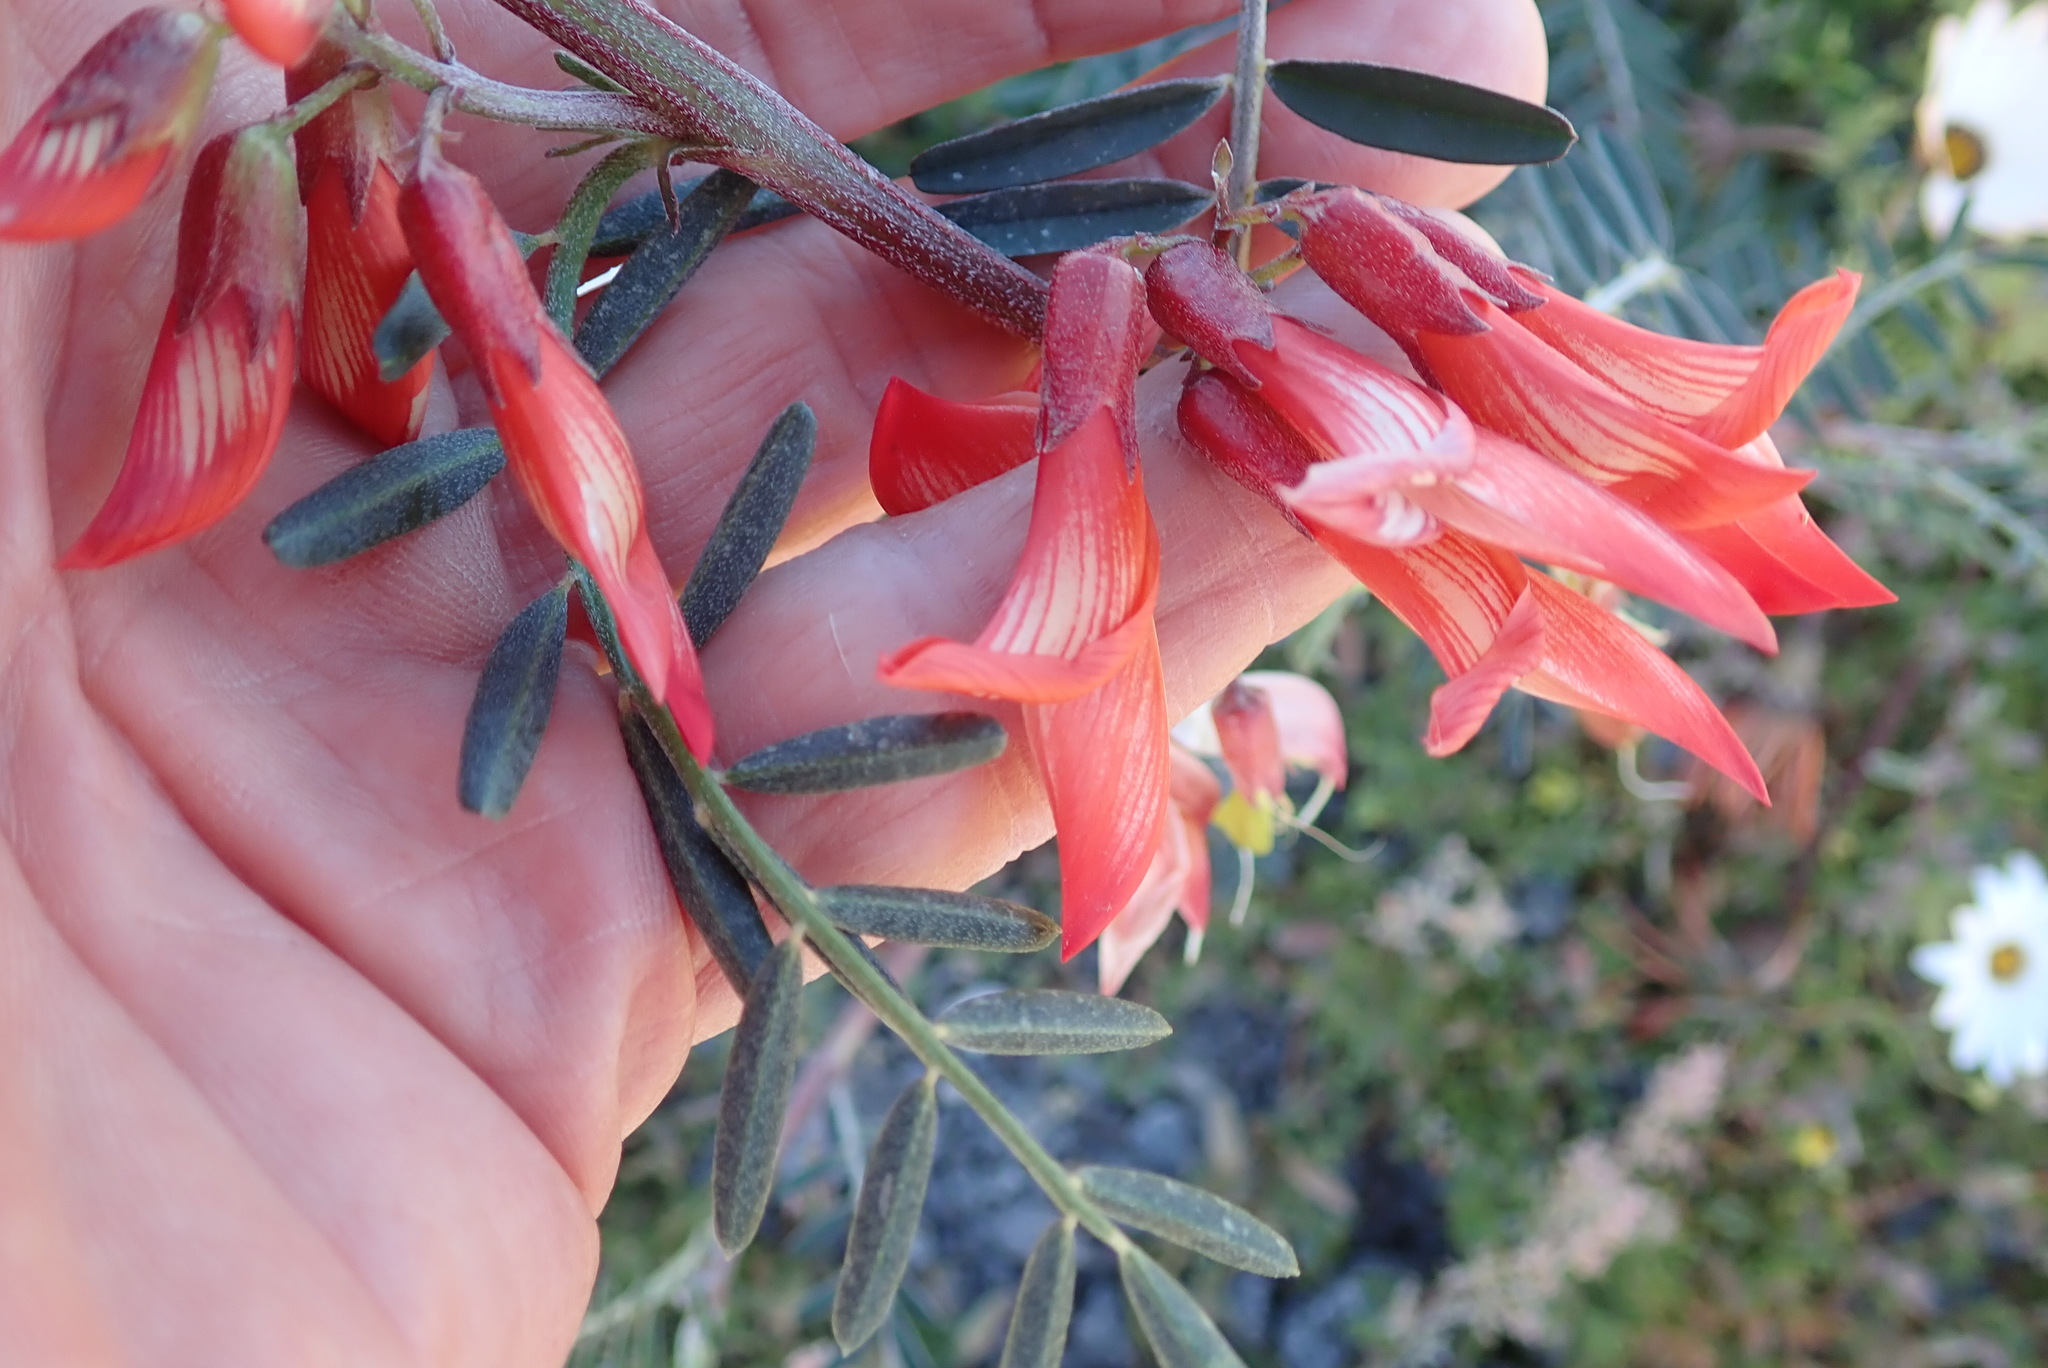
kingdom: Plantae
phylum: Tracheophyta
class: Magnoliopsida
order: Fabales
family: Fabaceae
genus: Lessertia
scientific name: Lessertia frutescens
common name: Balloon-pea
